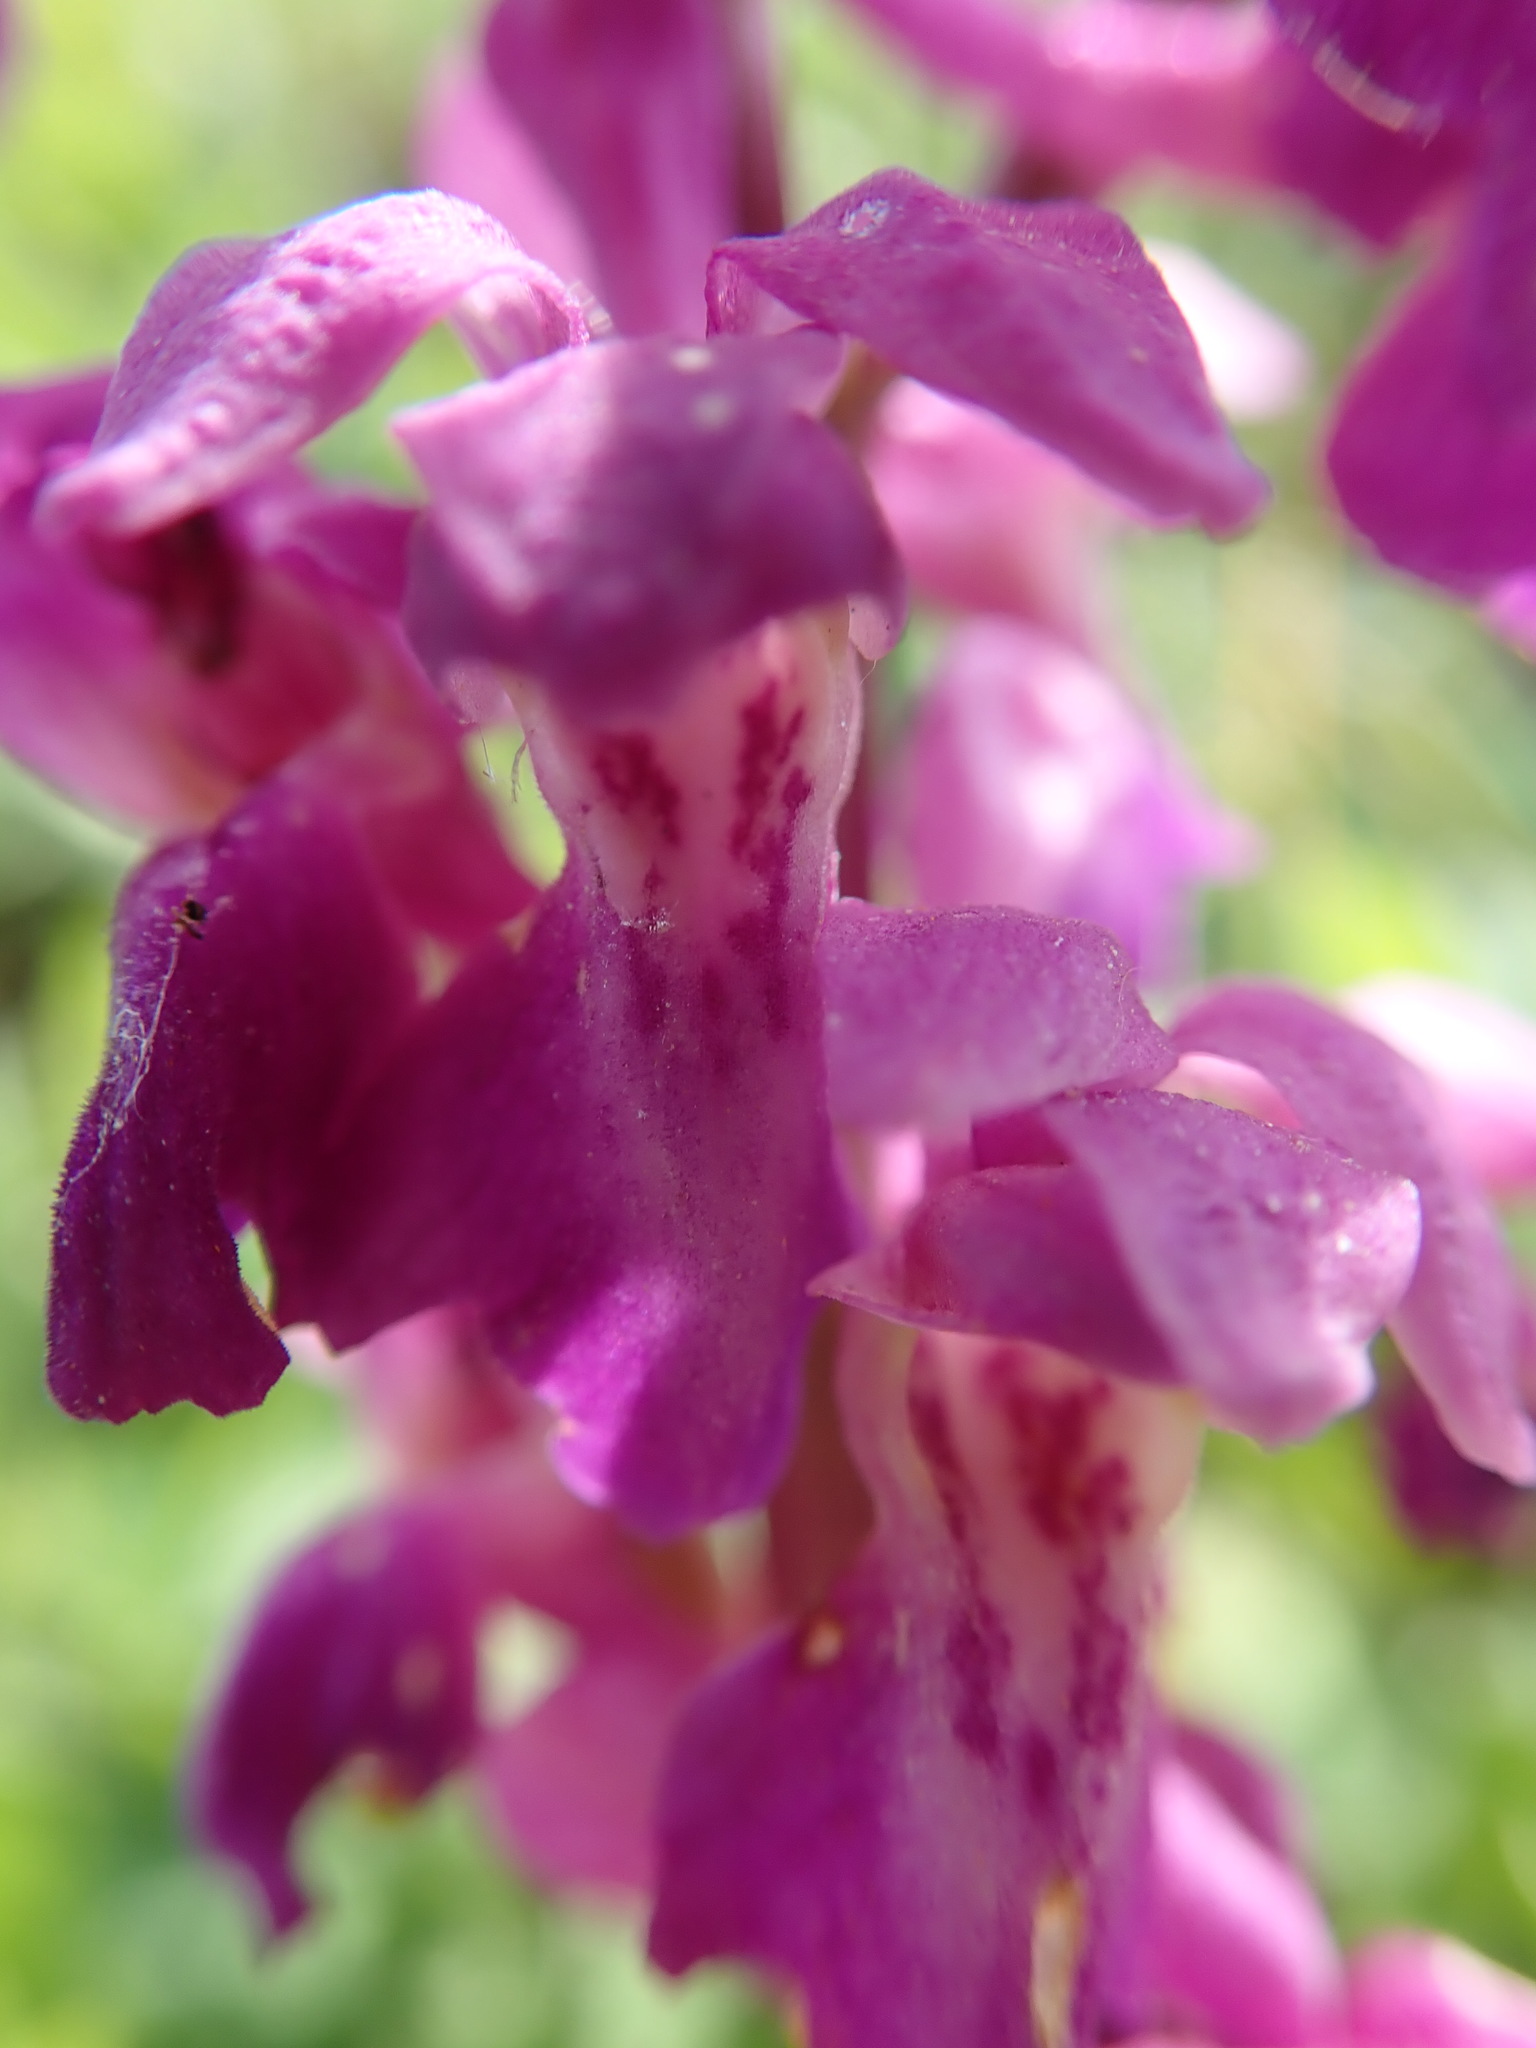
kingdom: Plantae
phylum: Tracheophyta
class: Liliopsida
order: Asparagales
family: Orchidaceae
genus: Orchis
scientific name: Orchis mascula
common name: Early-purple orchid
